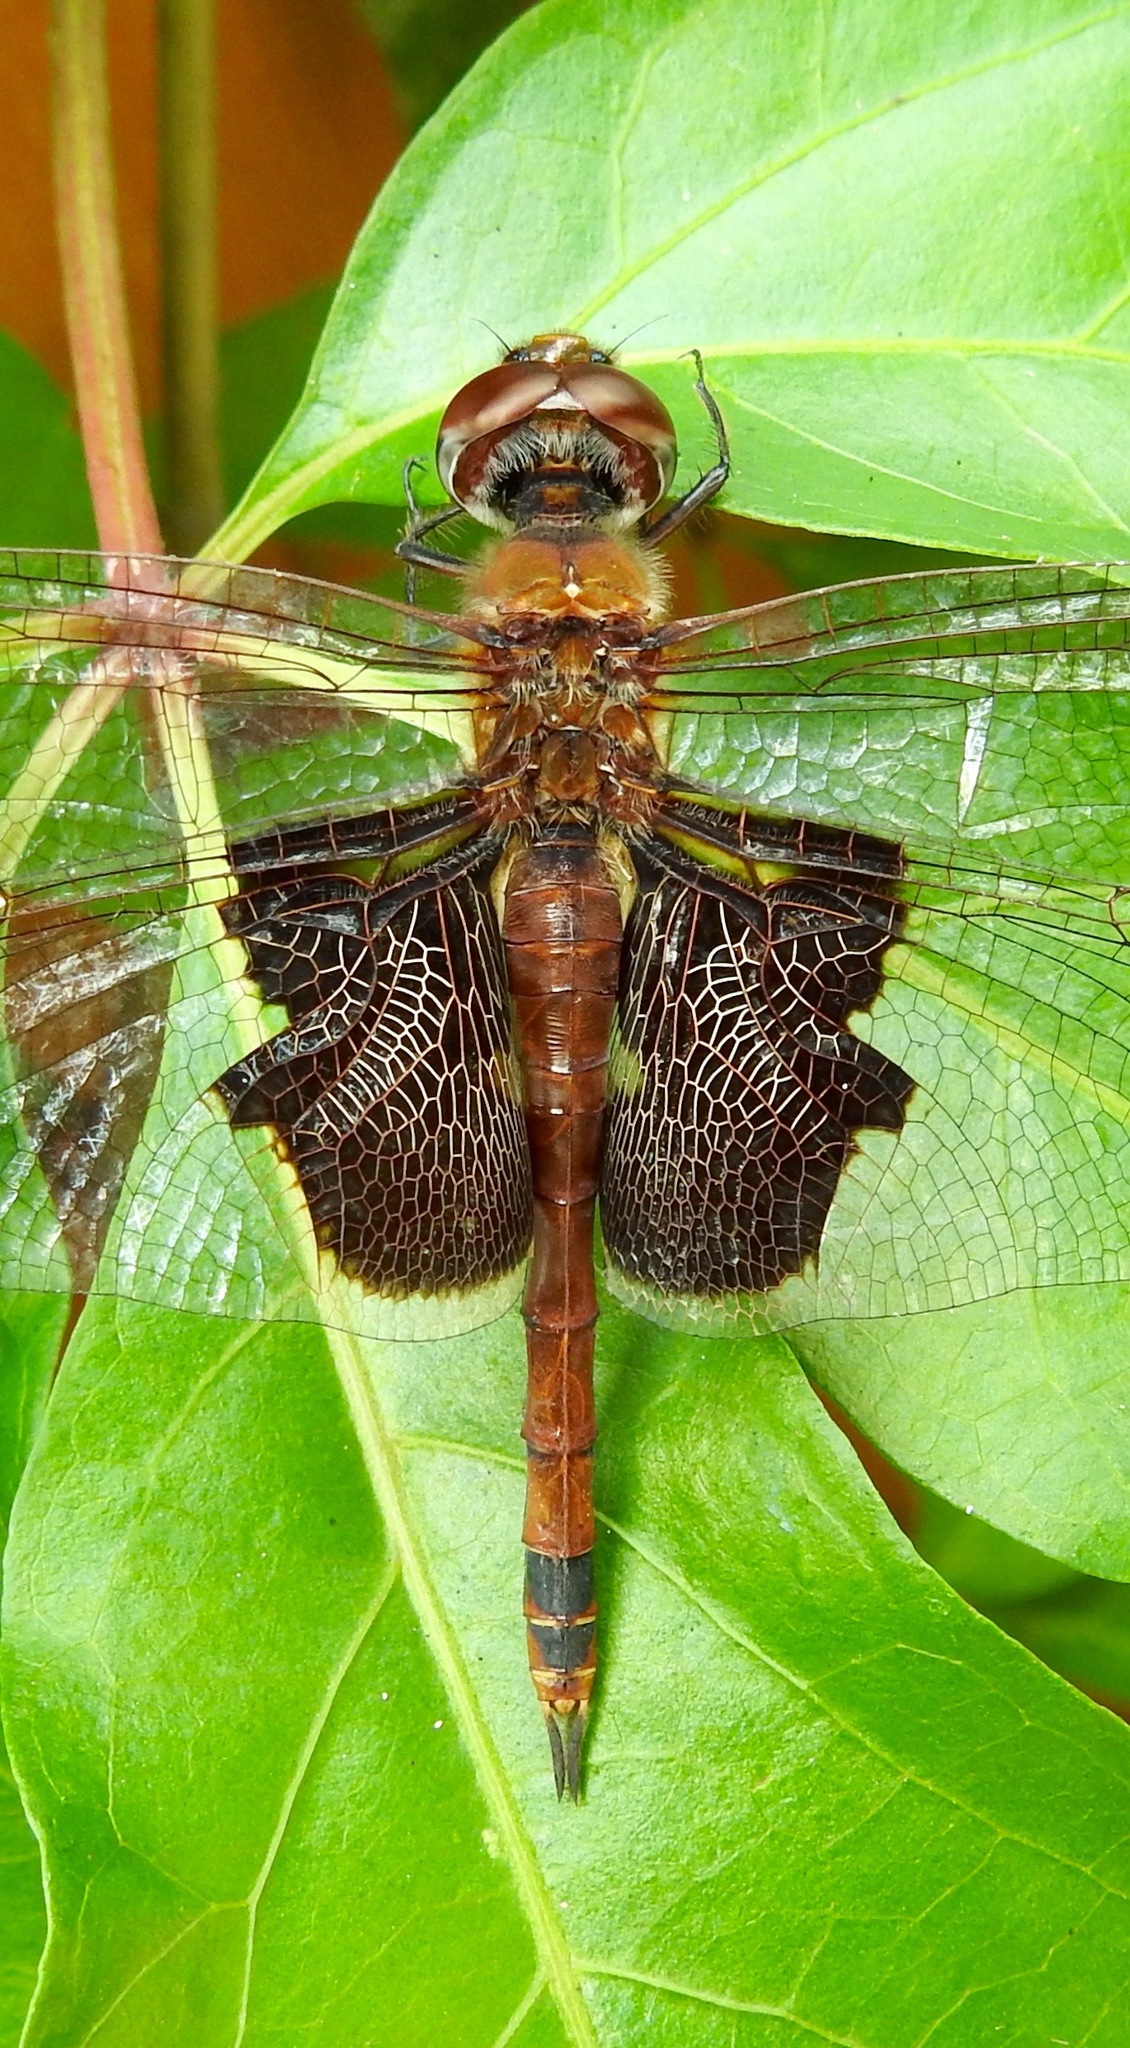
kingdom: Animalia
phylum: Arthropoda
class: Insecta
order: Odonata
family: Libellulidae
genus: Tramea
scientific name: Tramea carolina
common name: Carolina saddlebags
